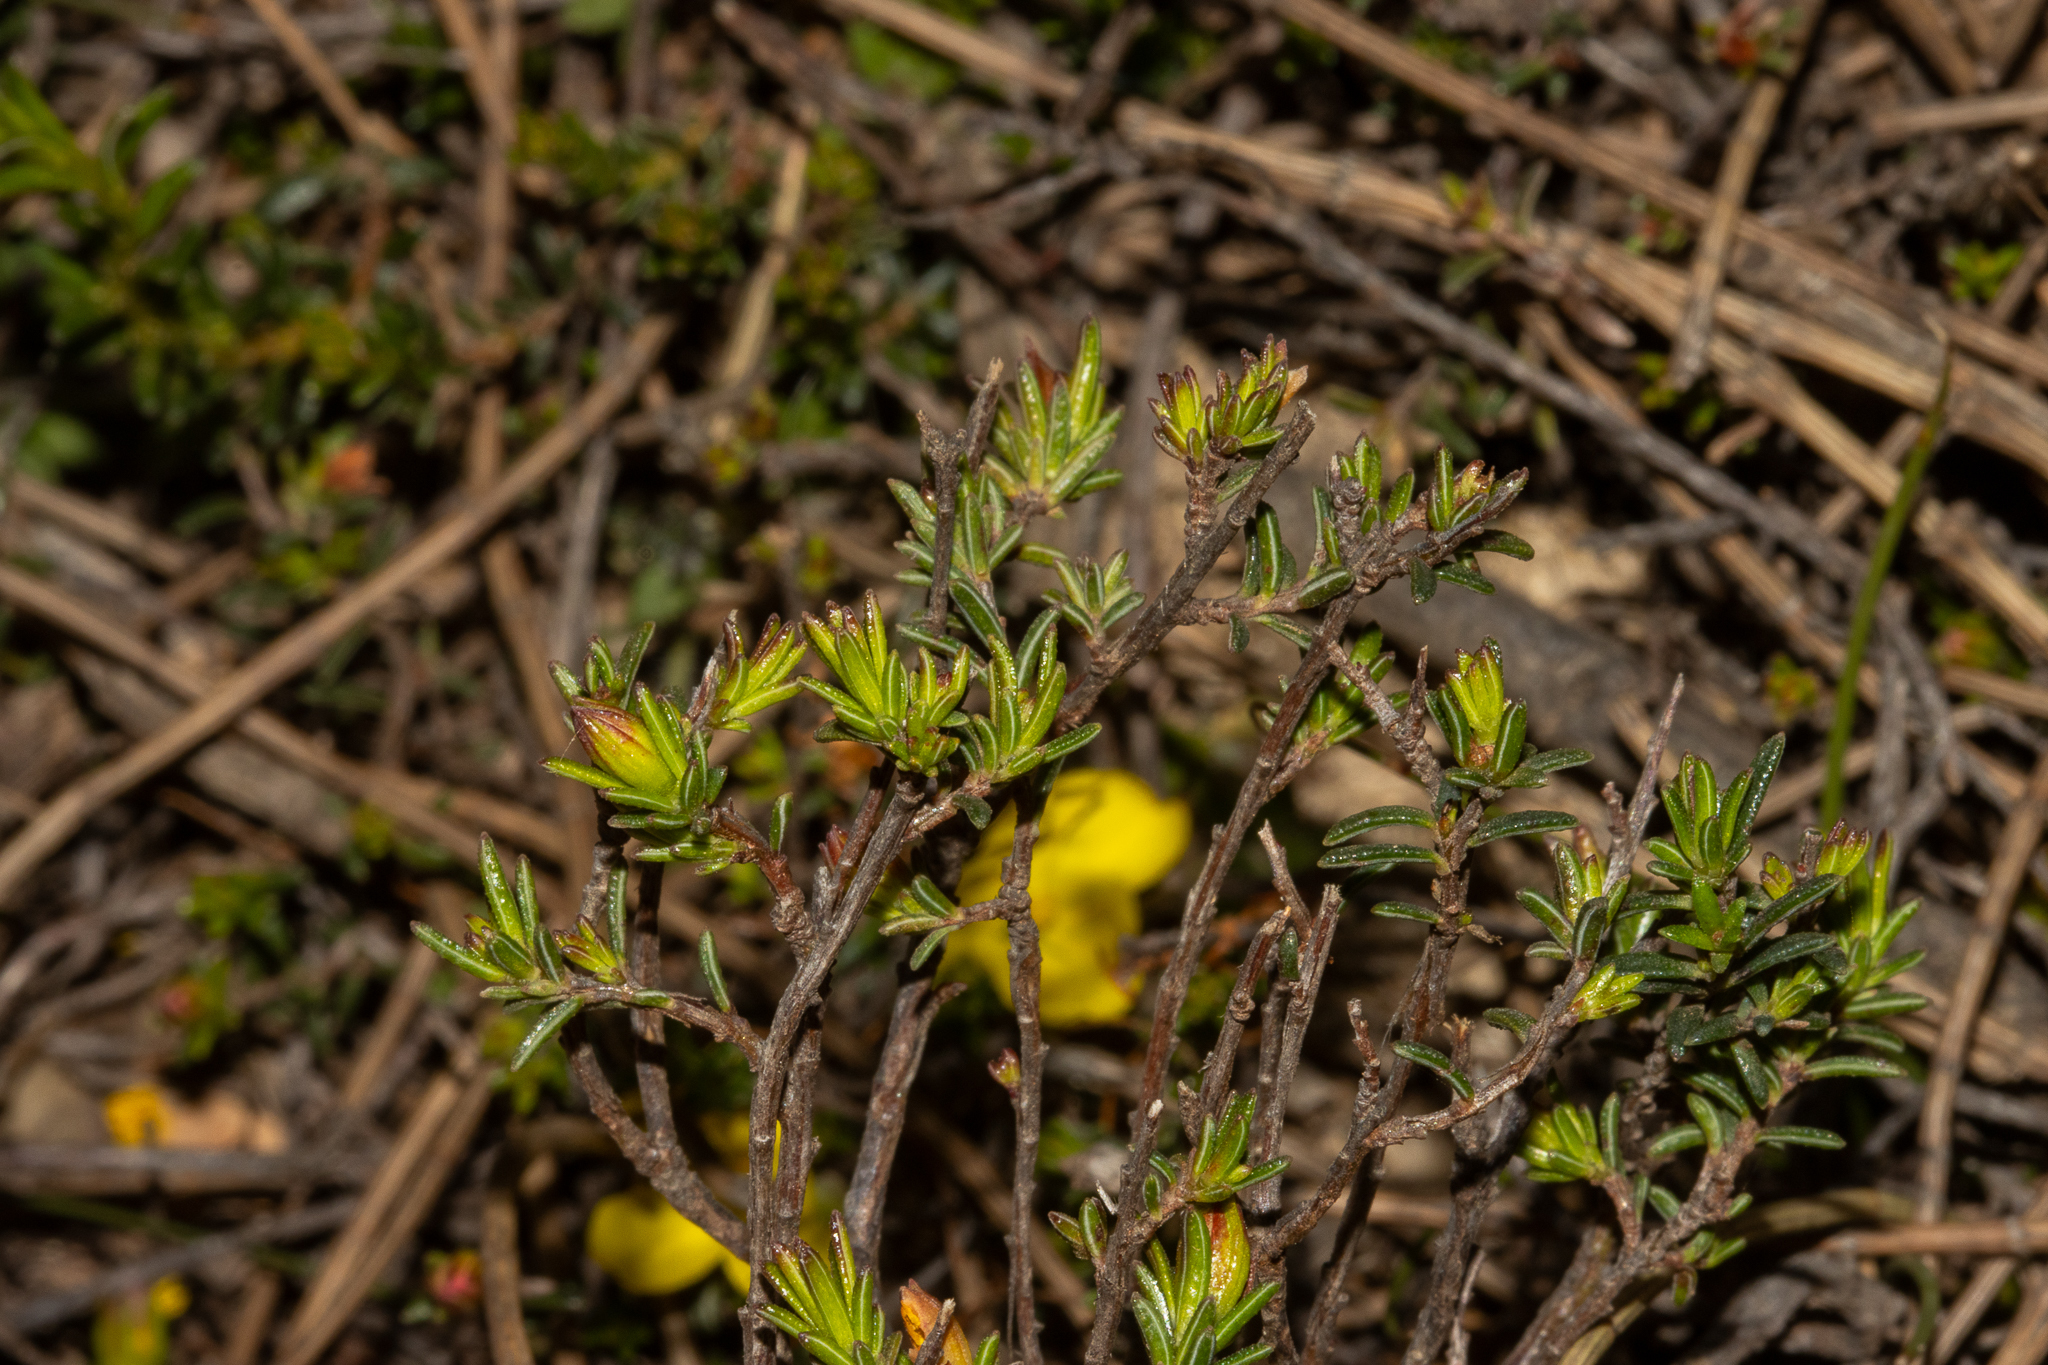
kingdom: Plantae
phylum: Tracheophyta
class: Magnoliopsida
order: Dilleniales
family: Dilleniaceae
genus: Hibbertia
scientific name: Hibbertia devitata
